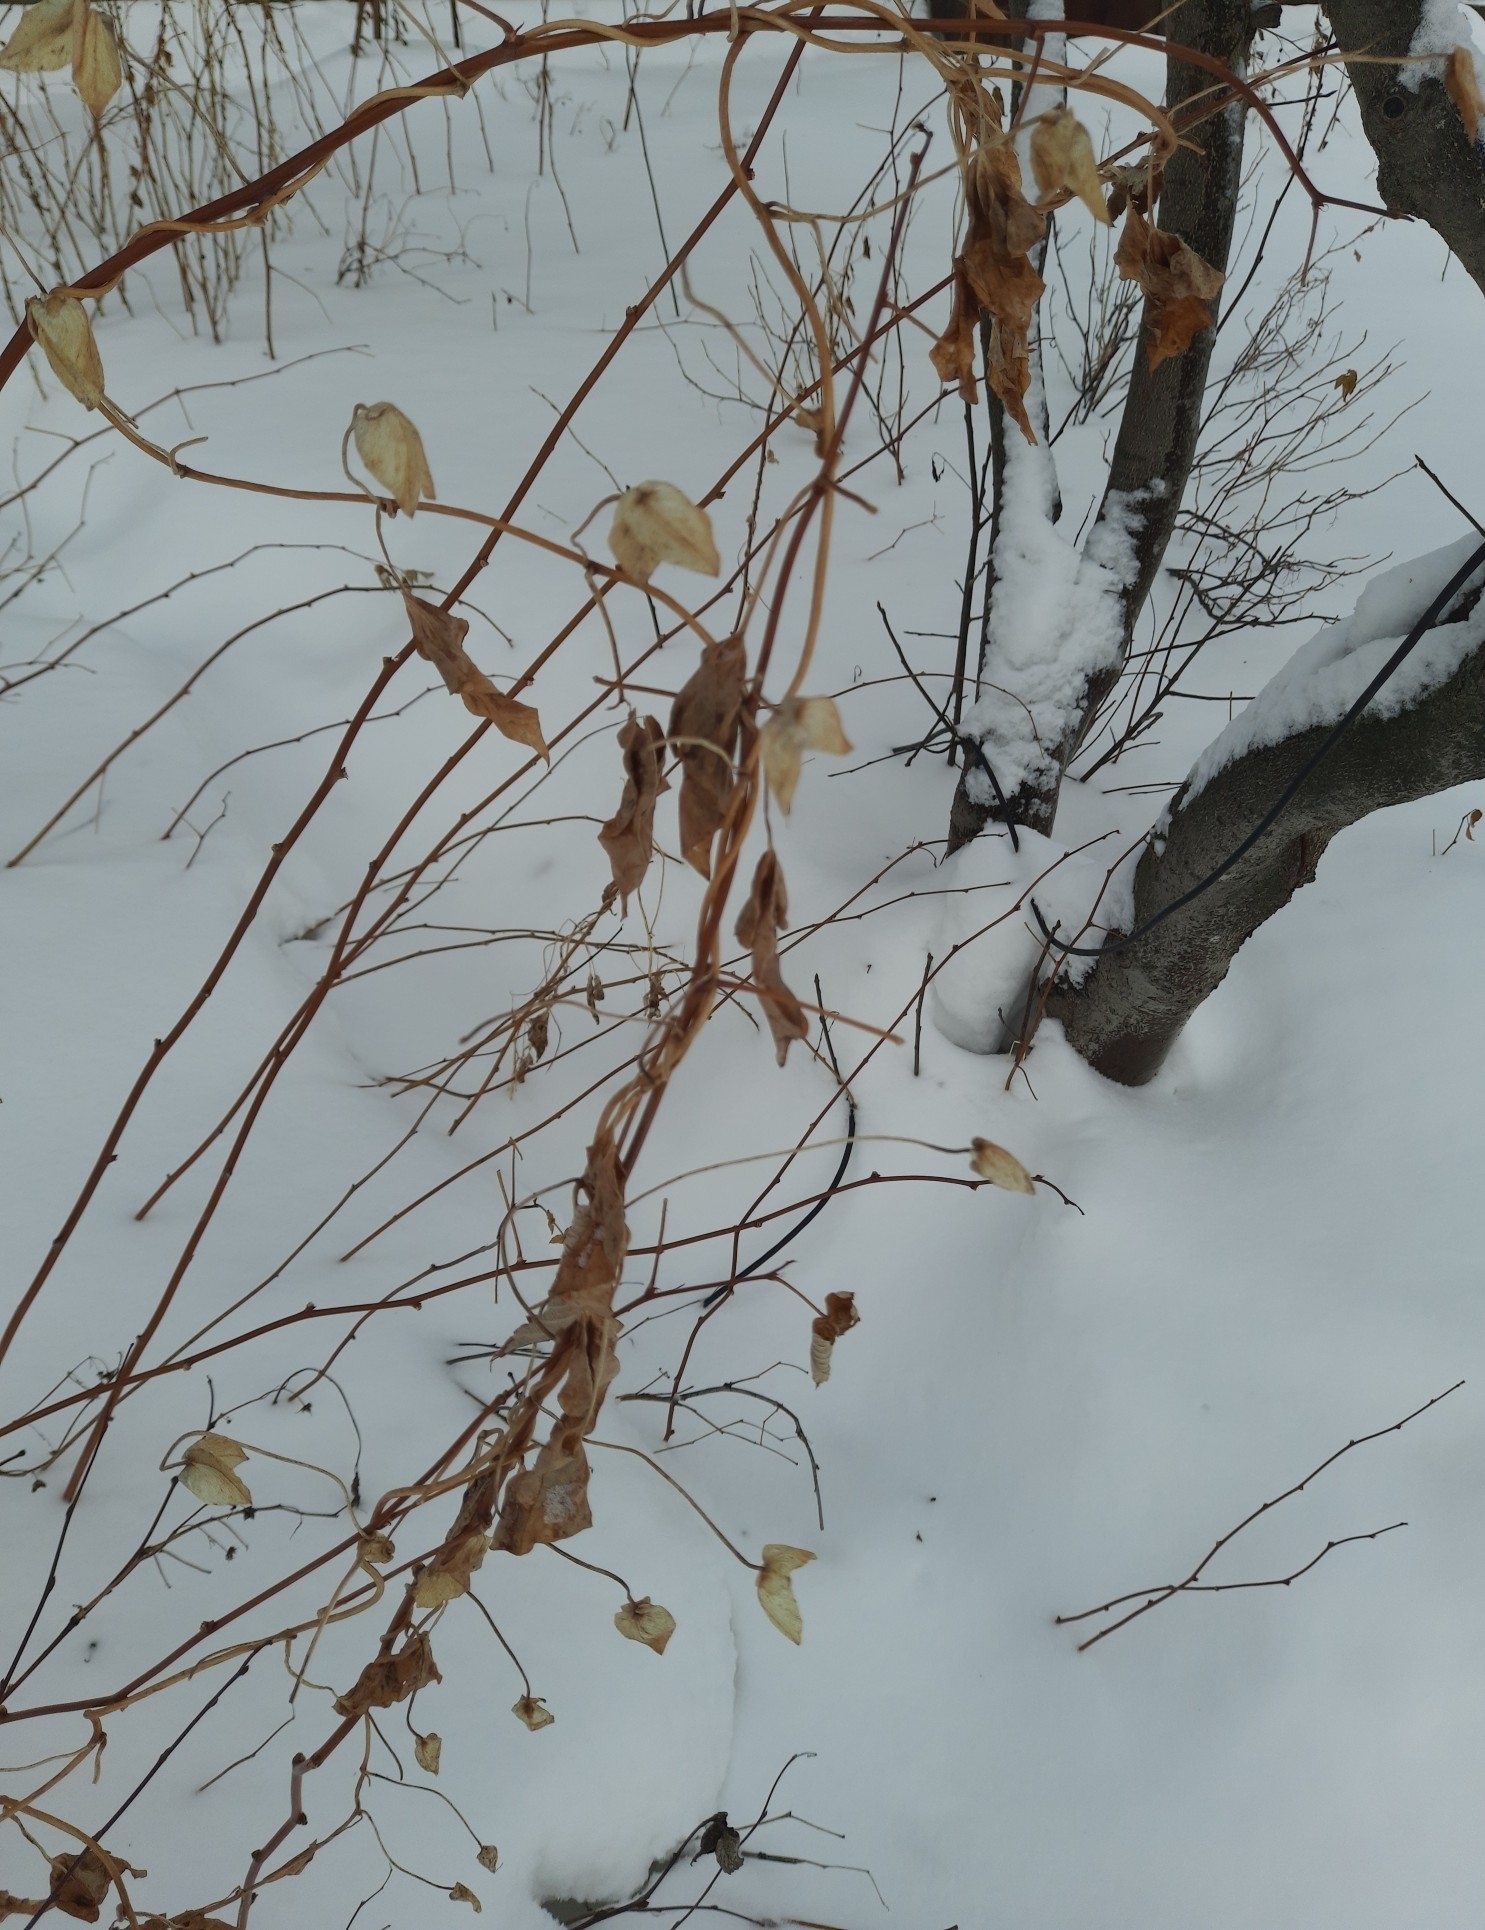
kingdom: Plantae
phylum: Tracheophyta
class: Magnoliopsida
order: Solanales
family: Convolvulaceae
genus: Calystegia
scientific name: Calystegia sepium
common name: Hedge bindweed
